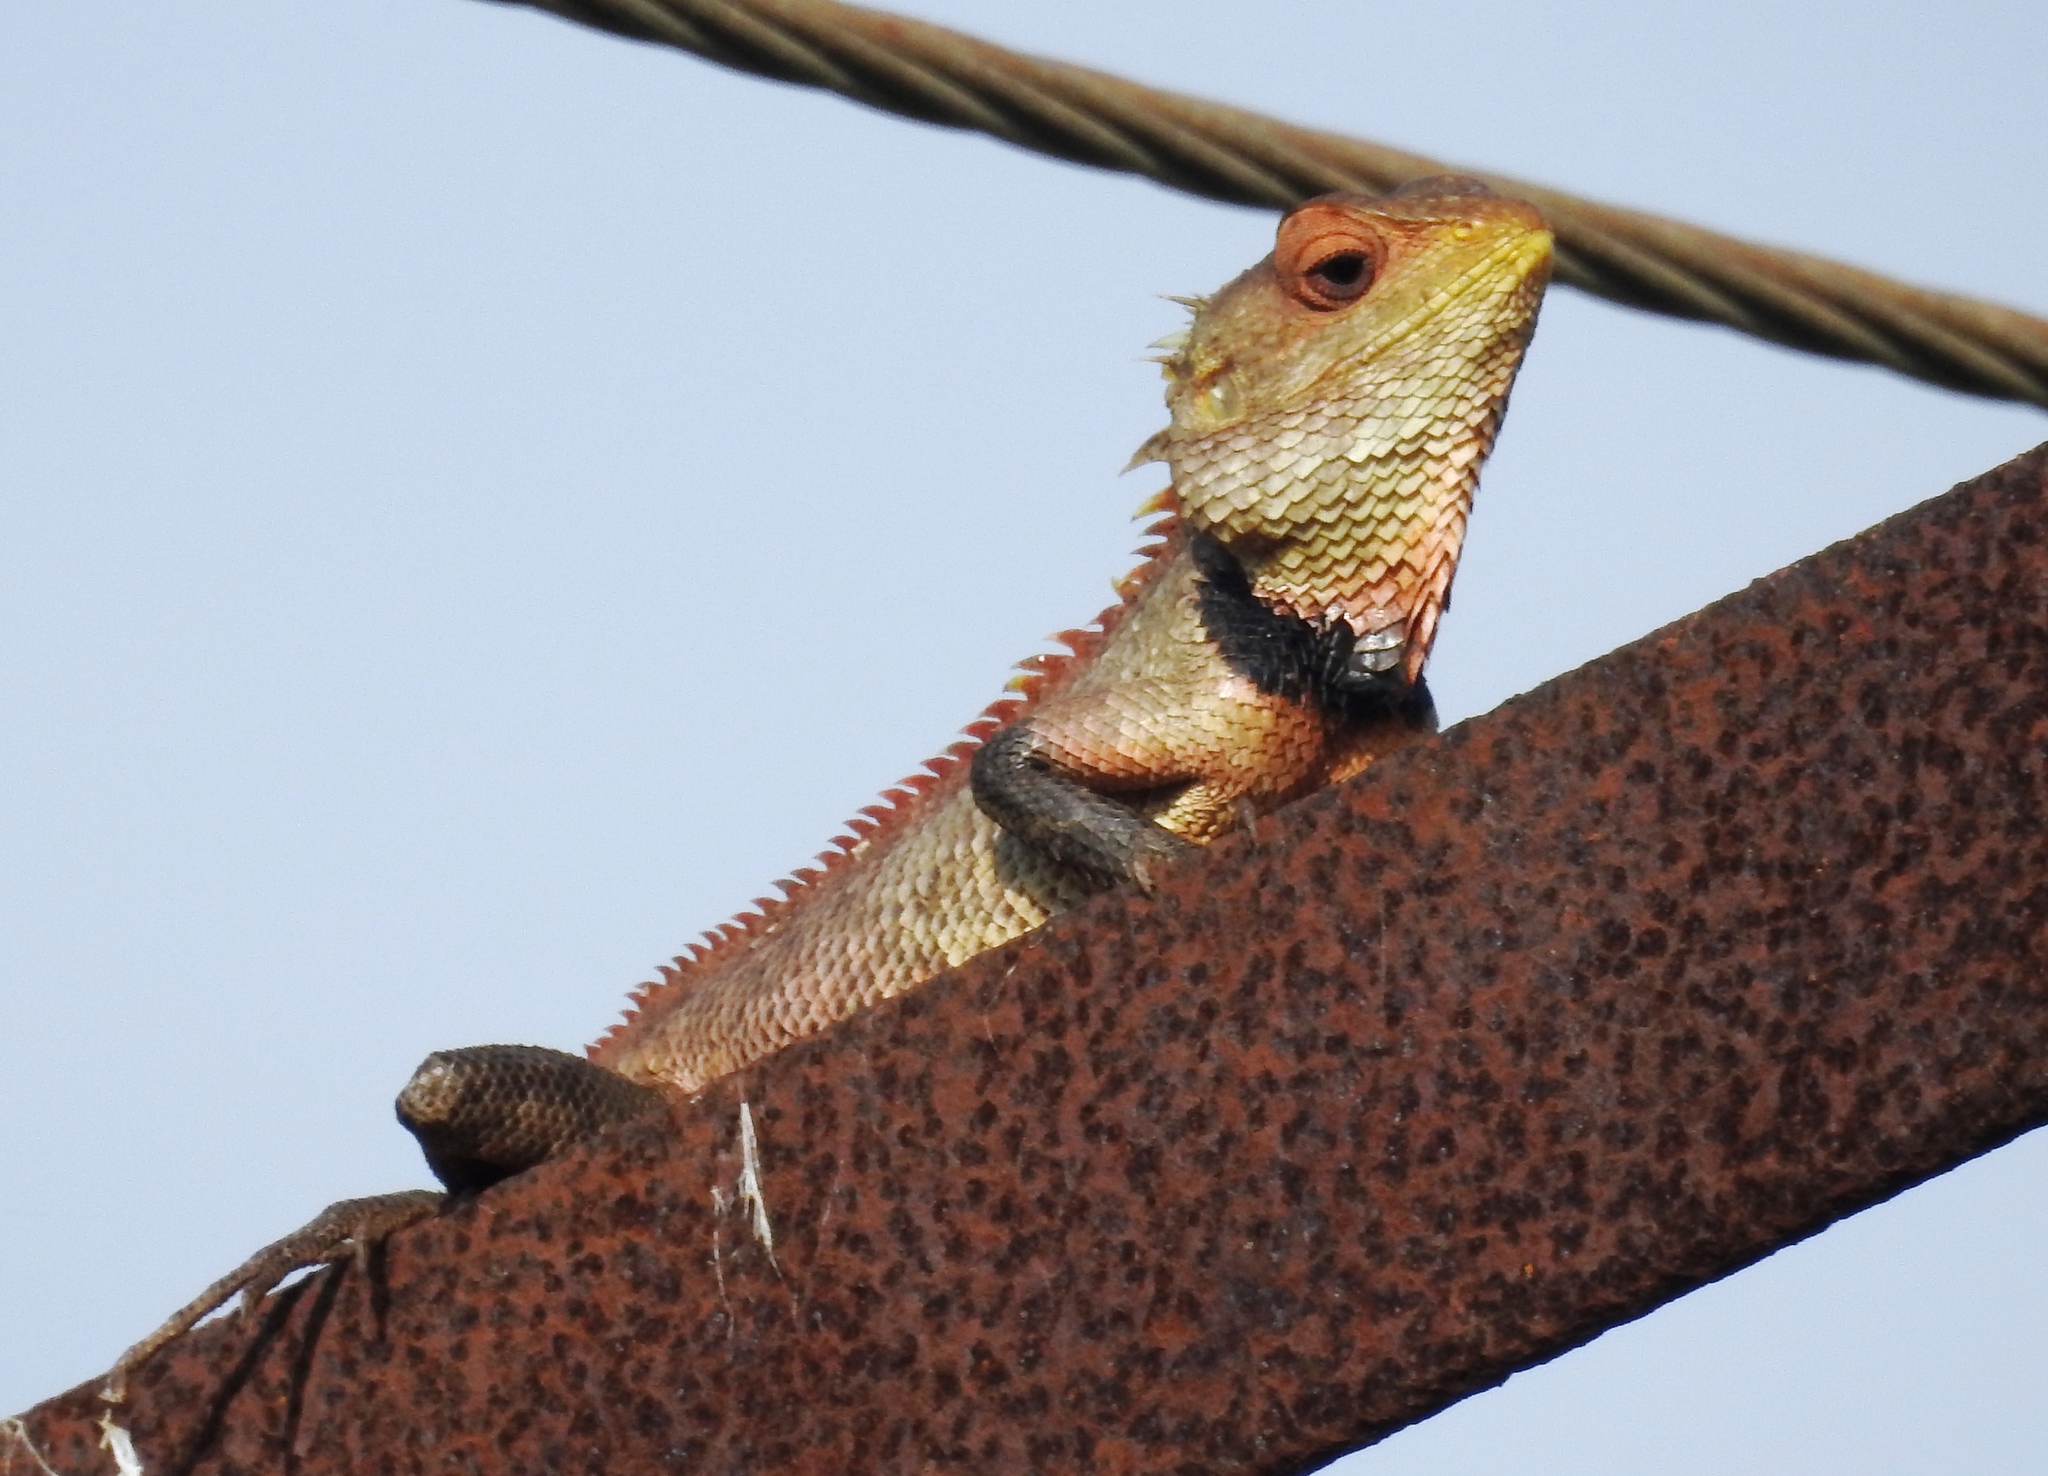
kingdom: Animalia
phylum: Chordata
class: Squamata
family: Agamidae
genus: Calotes
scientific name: Calotes versicolor
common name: Oriental garden lizard
